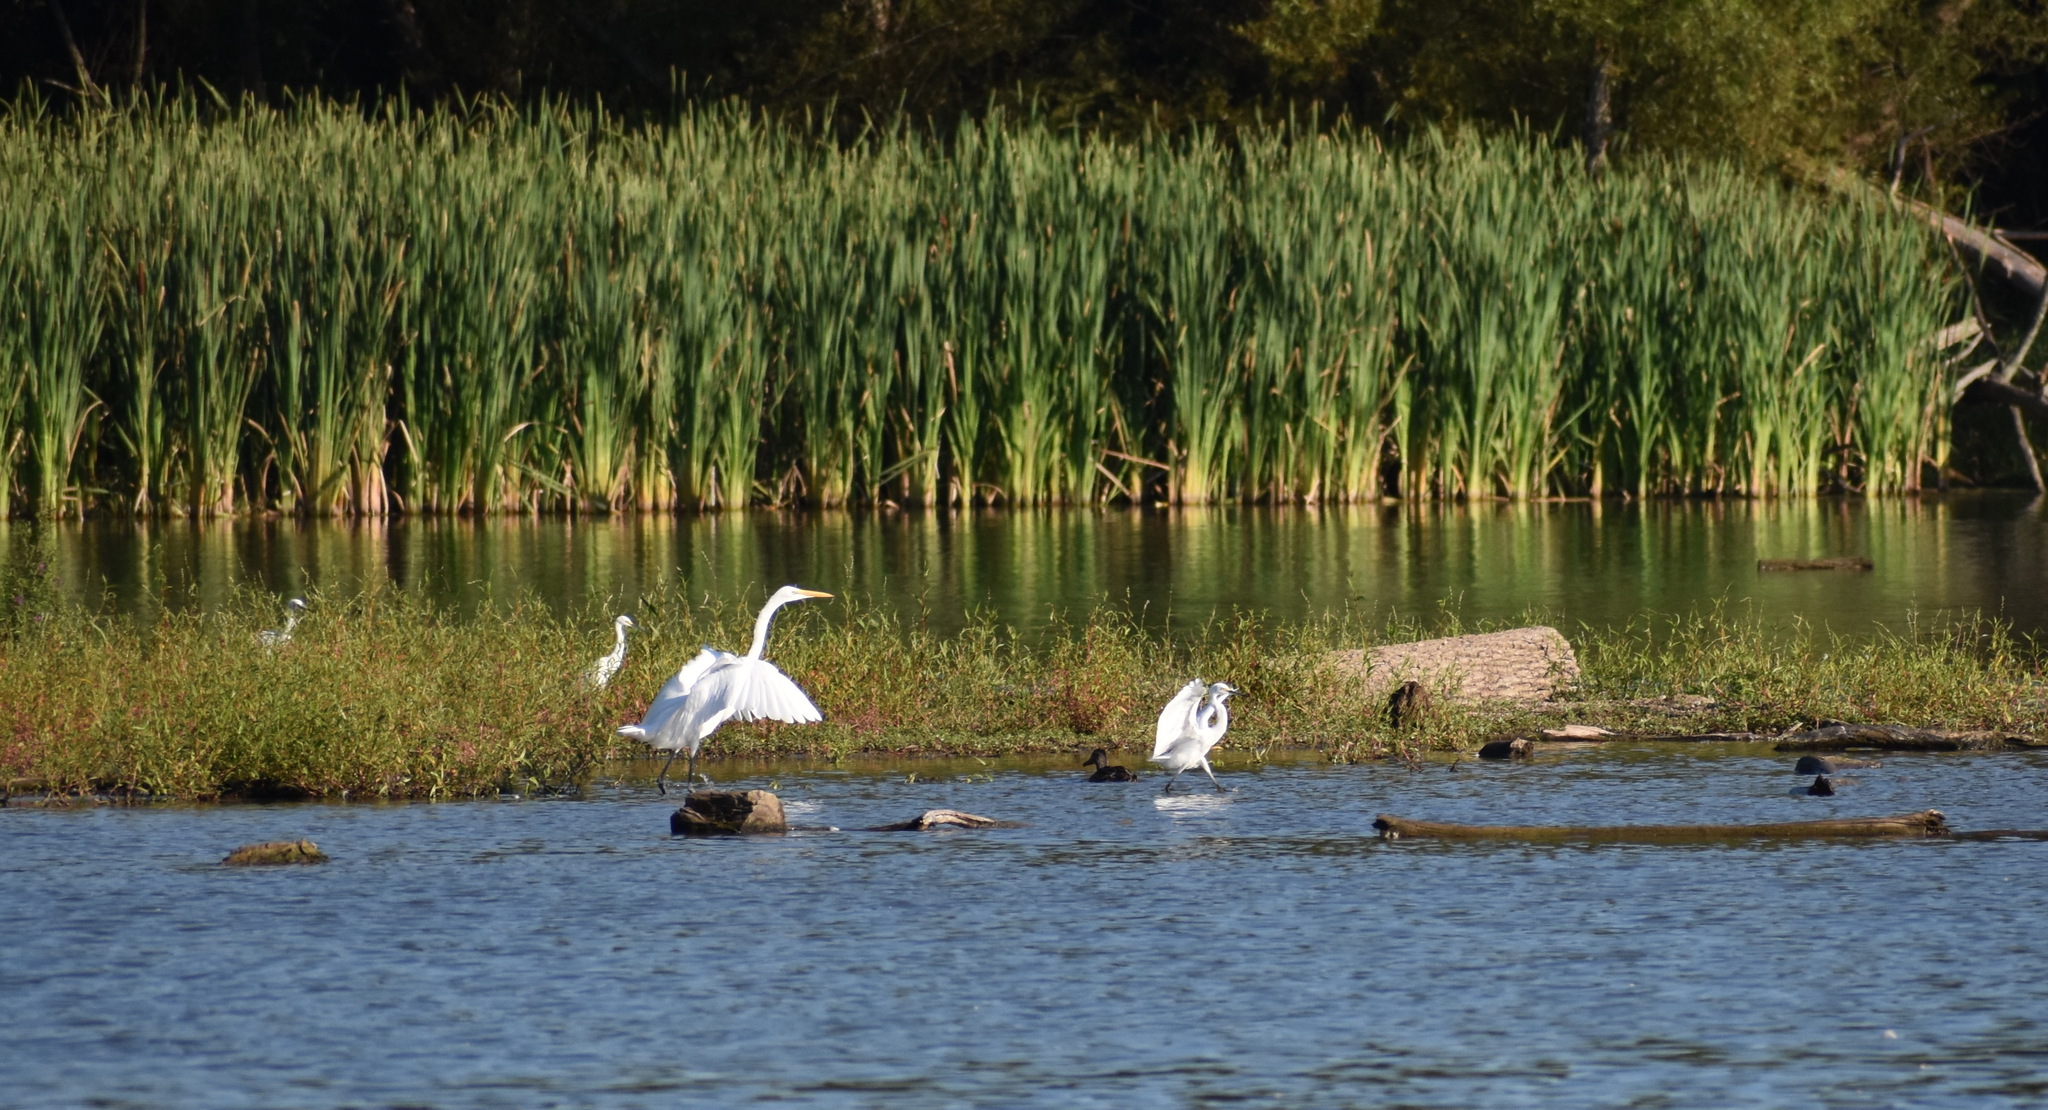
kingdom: Animalia
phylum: Chordata
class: Aves
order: Pelecaniformes
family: Ardeidae
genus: Egretta
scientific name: Egretta thula
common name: Snowy egret
